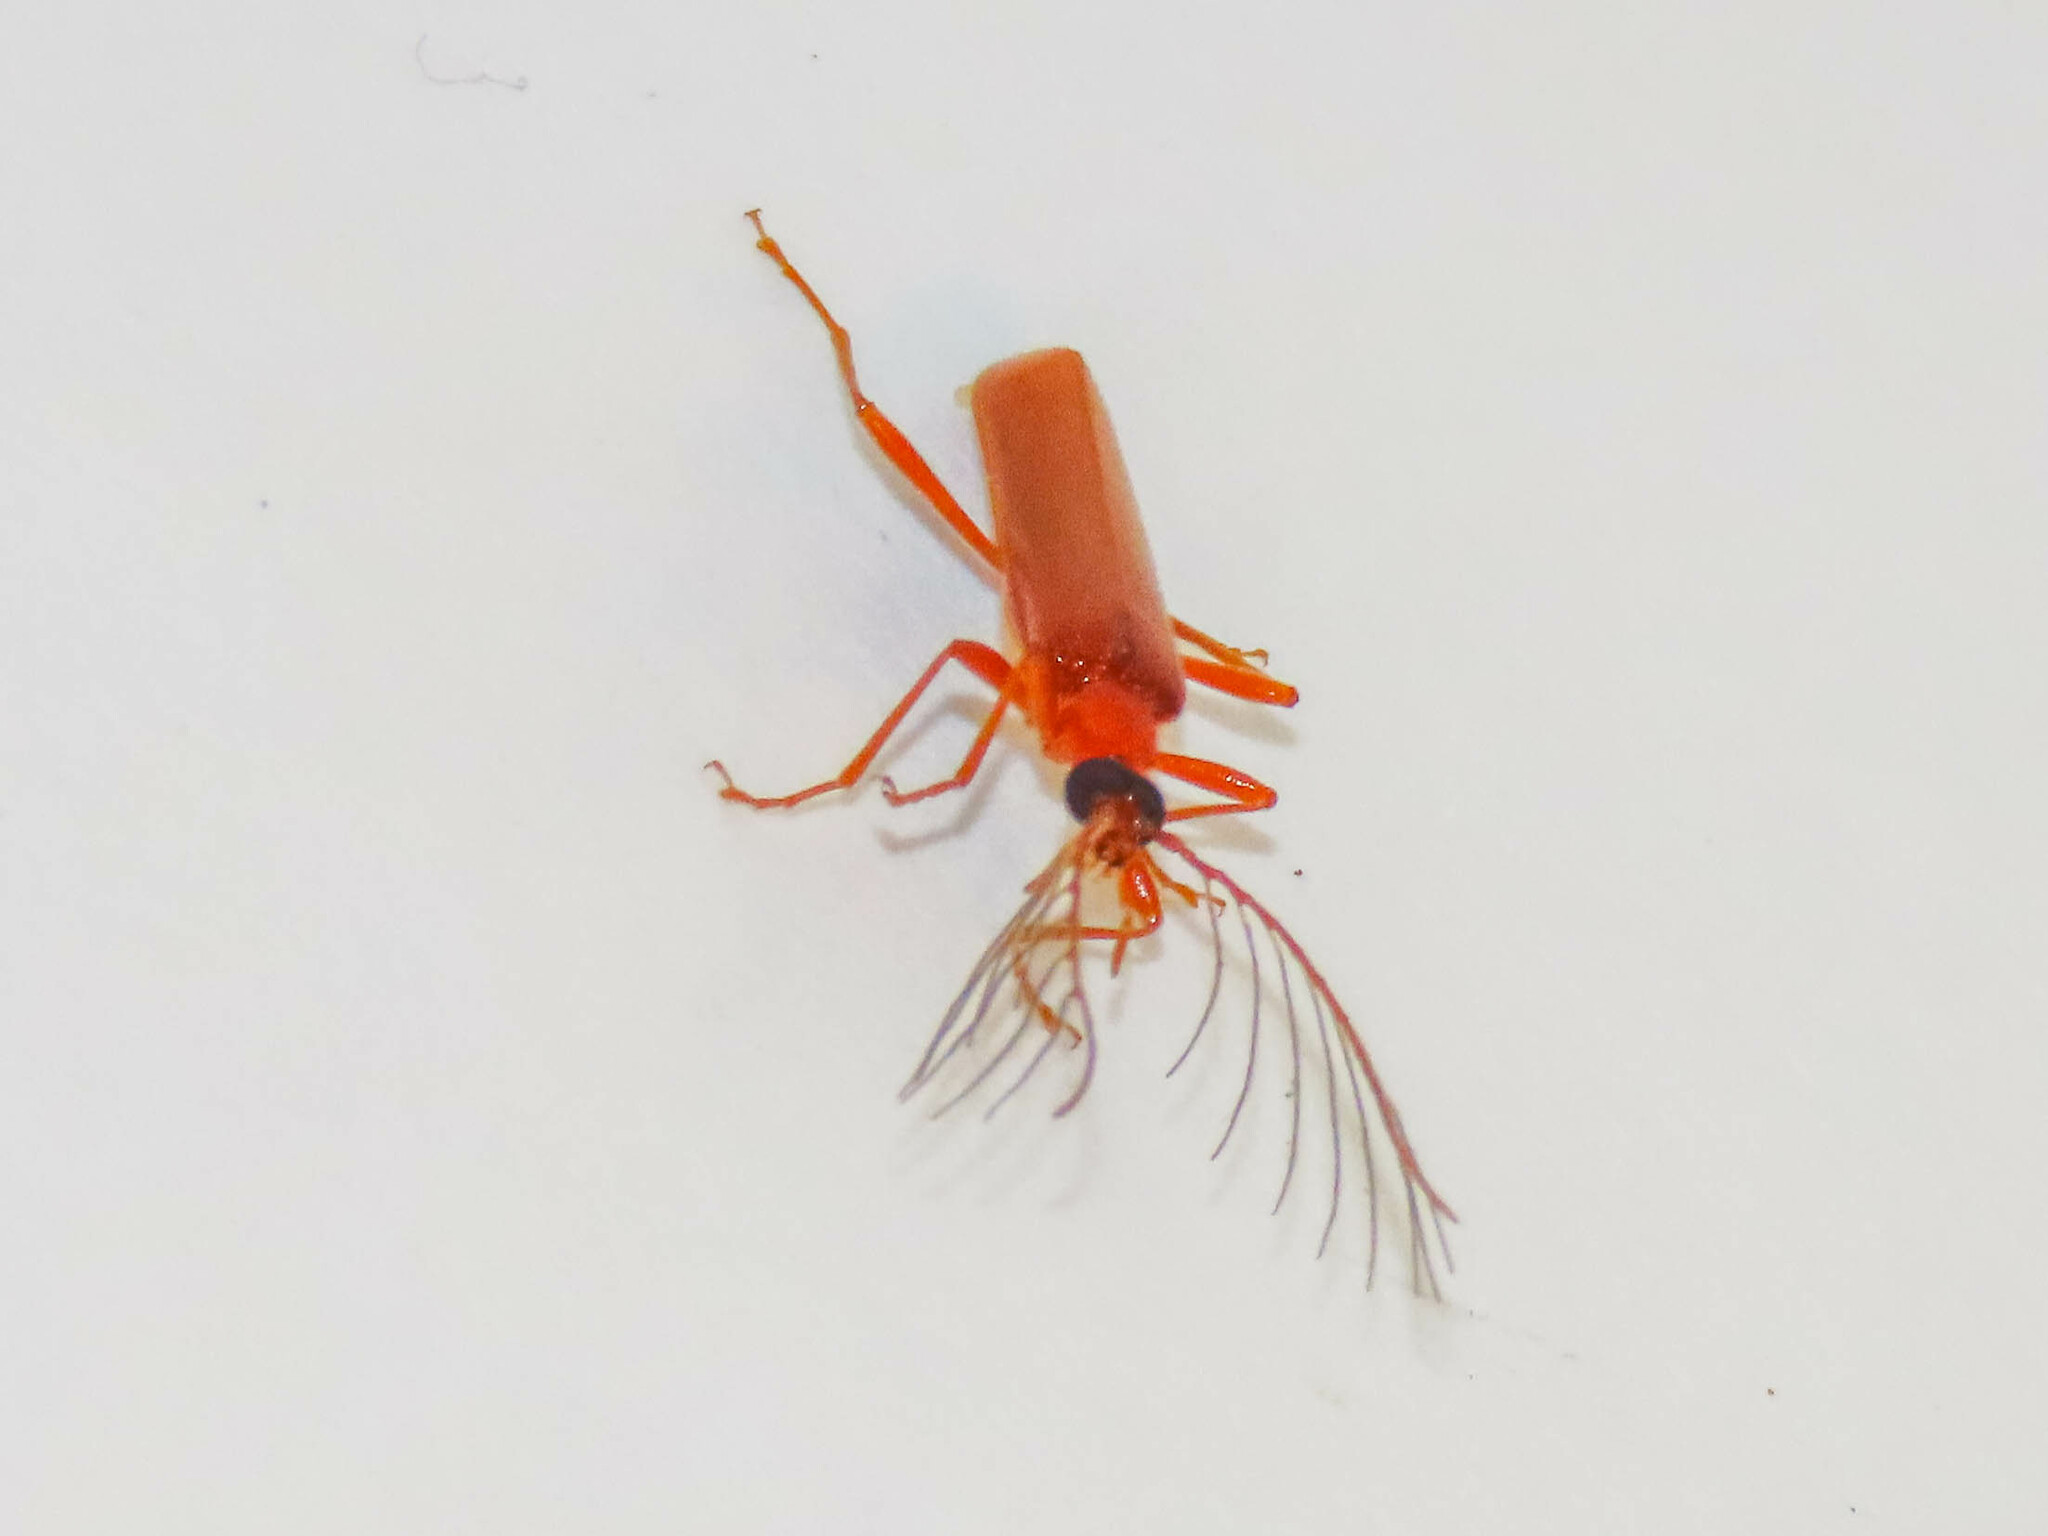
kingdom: Animalia
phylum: Arthropoda
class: Insecta
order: Coleoptera
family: Pyrochroidae
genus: Dendroides
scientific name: Dendroides concolor
